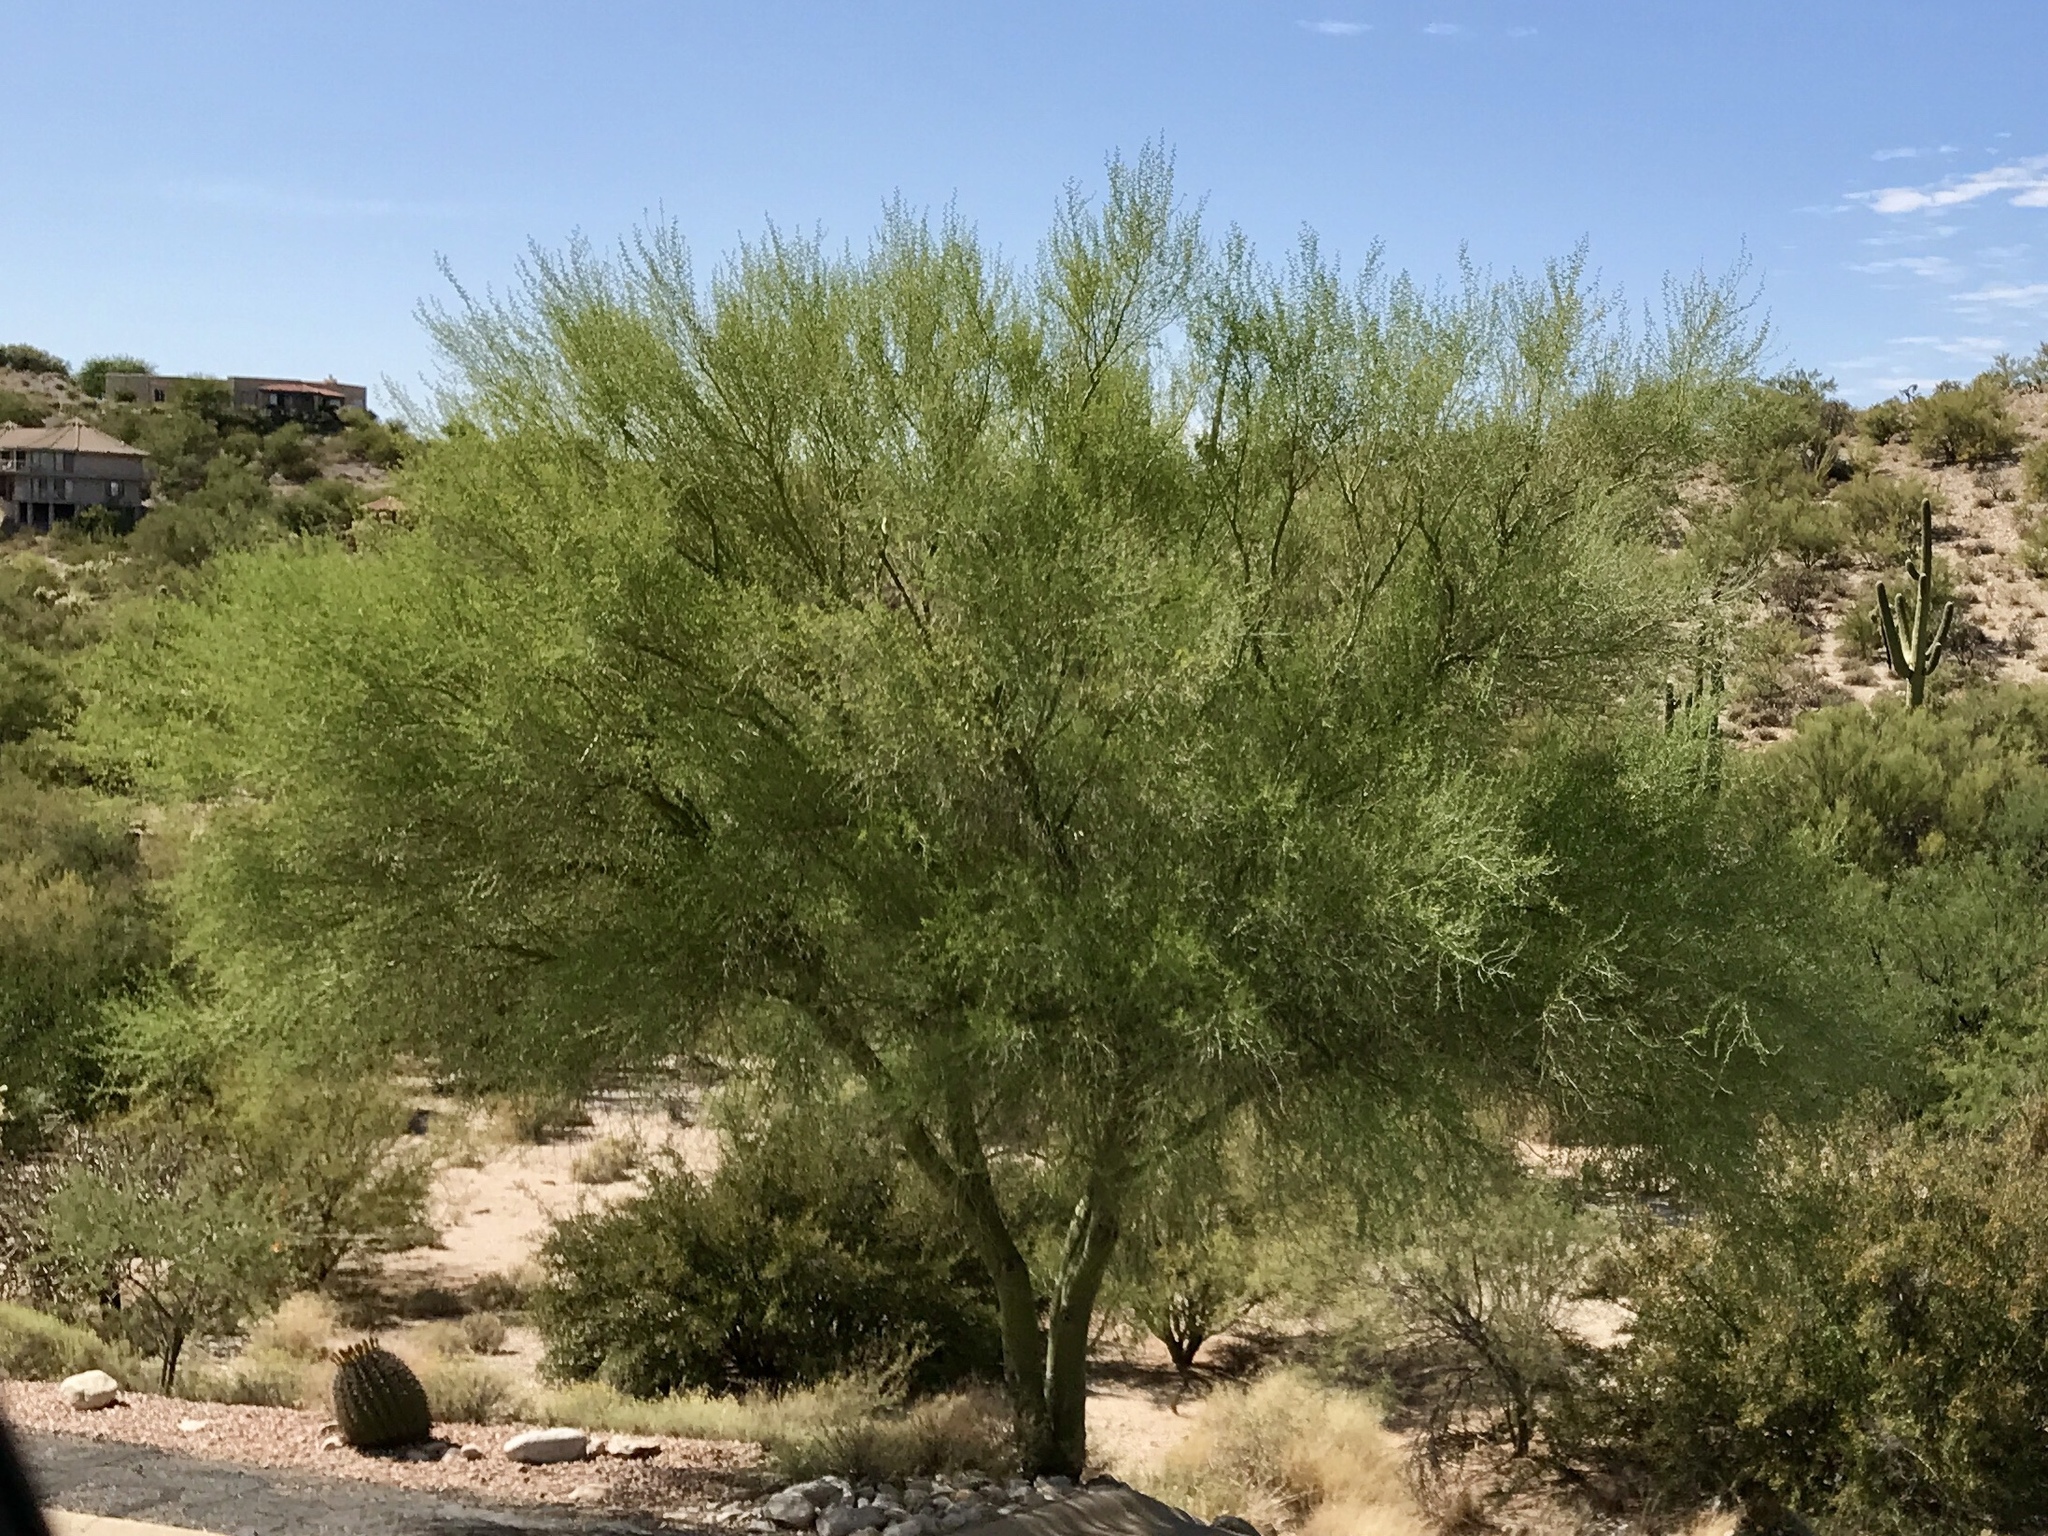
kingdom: Plantae
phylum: Tracheophyta
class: Magnoliopsida
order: Fabales
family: Fabaceae
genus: Parkinsonia
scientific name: Parkinsonia microphylla
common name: Yellow paloverde
